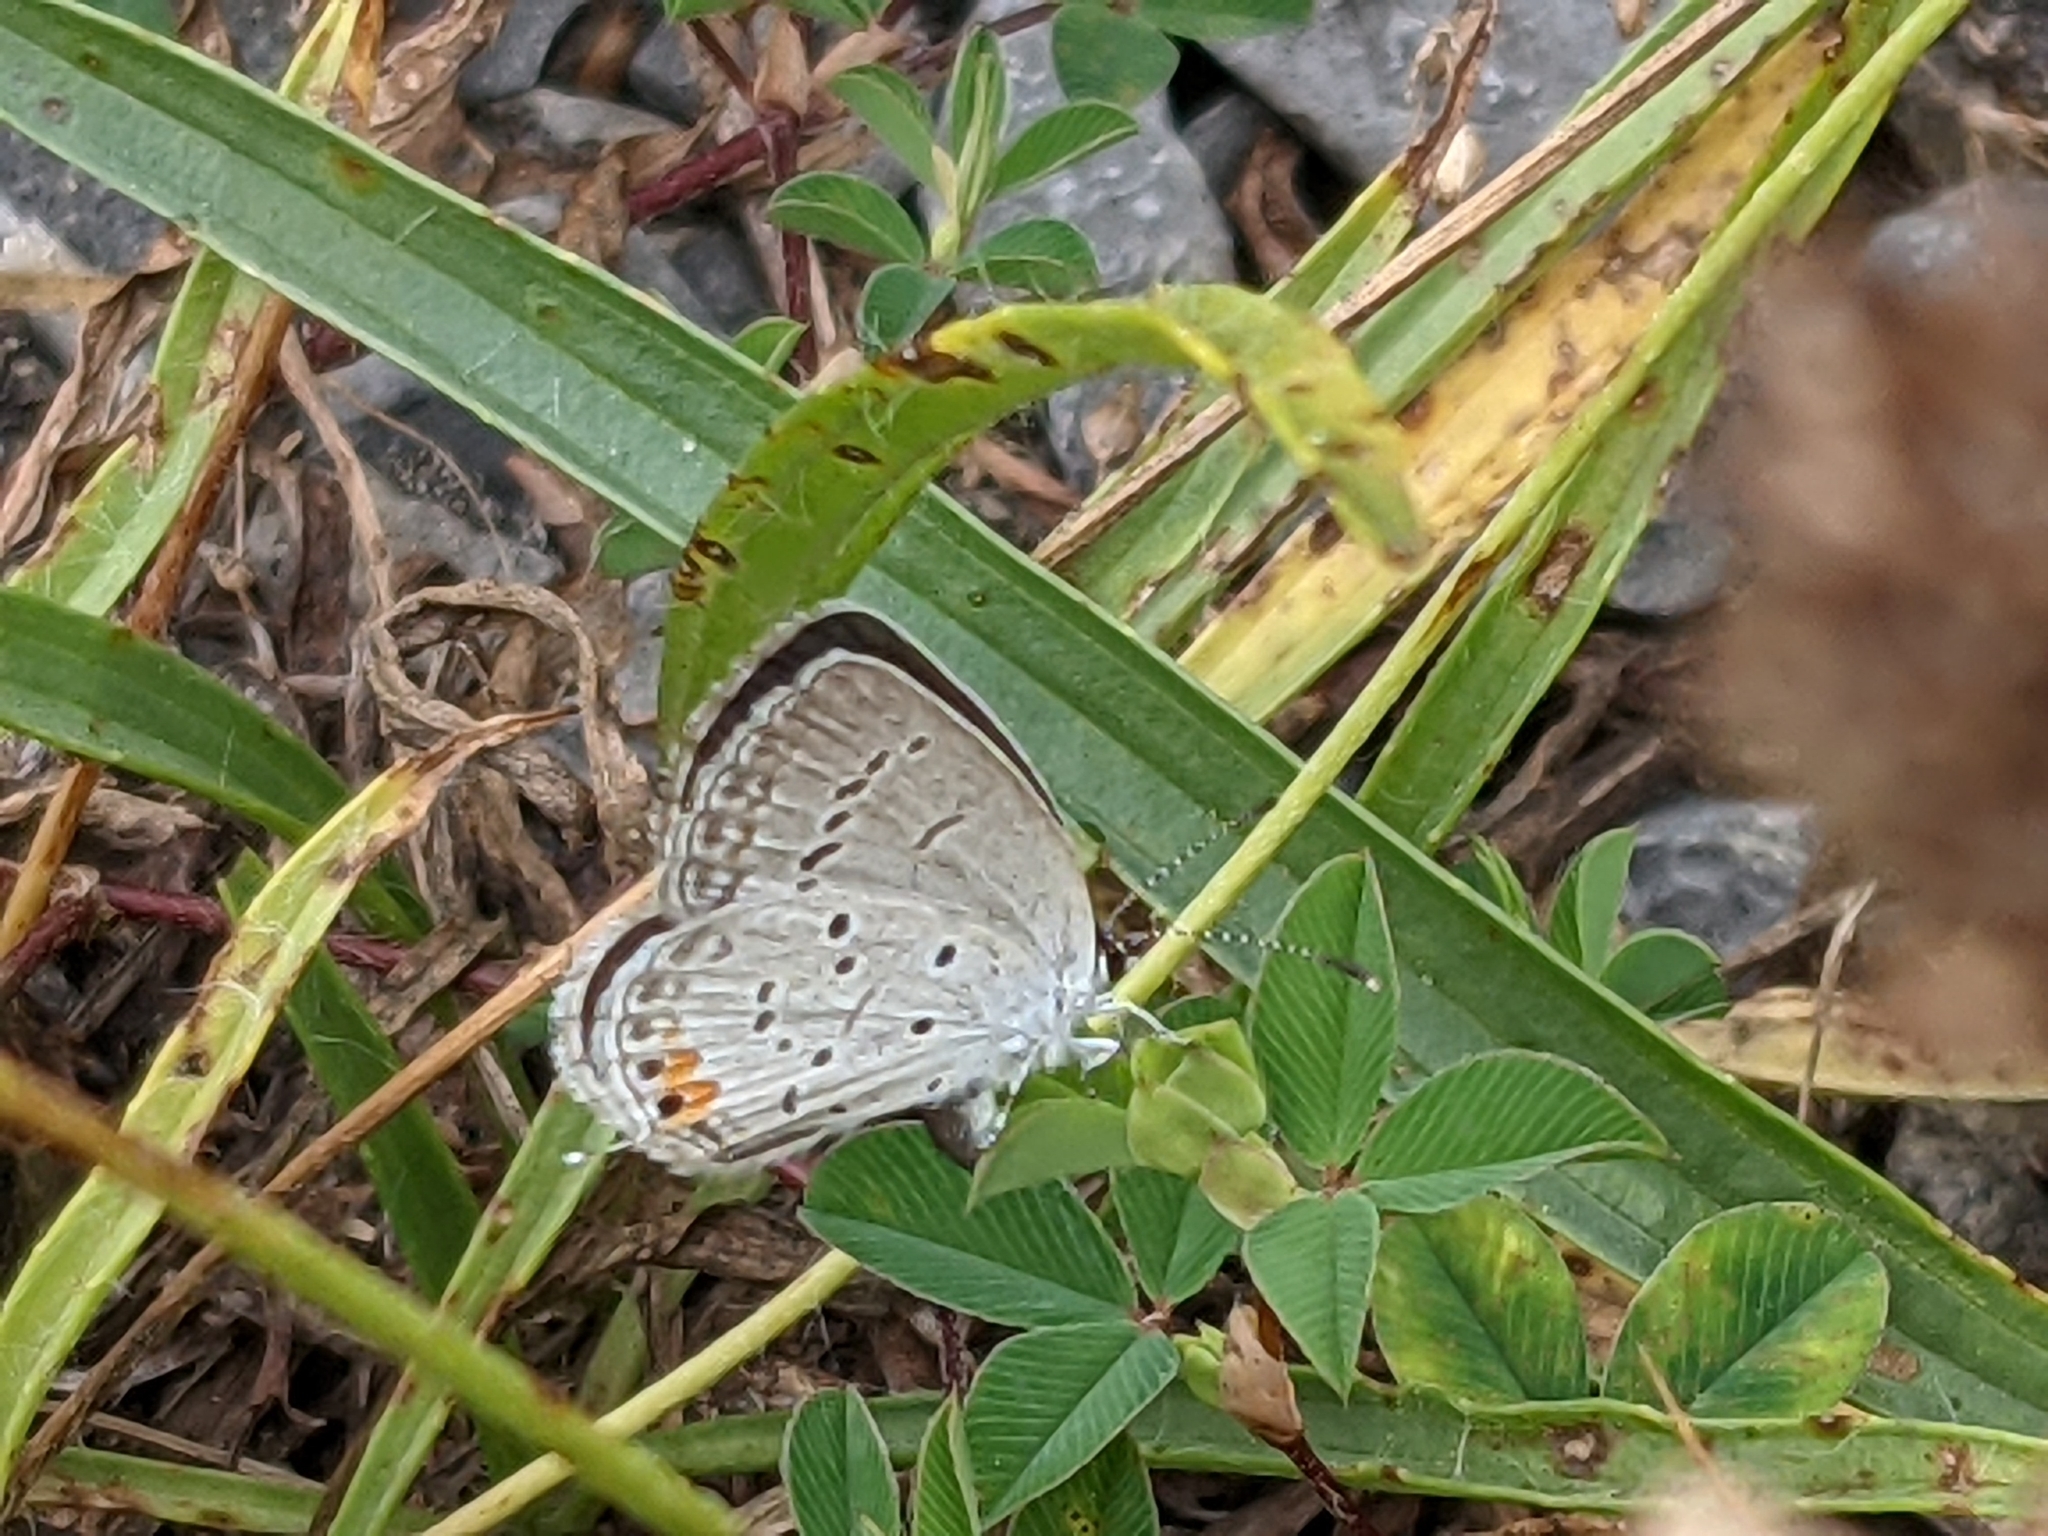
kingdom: Animalia
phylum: Arthropoda
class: Insecta
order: Lepidoptera
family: Lycaenidae
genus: Elkalyce
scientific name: Elkalyce comyntas
